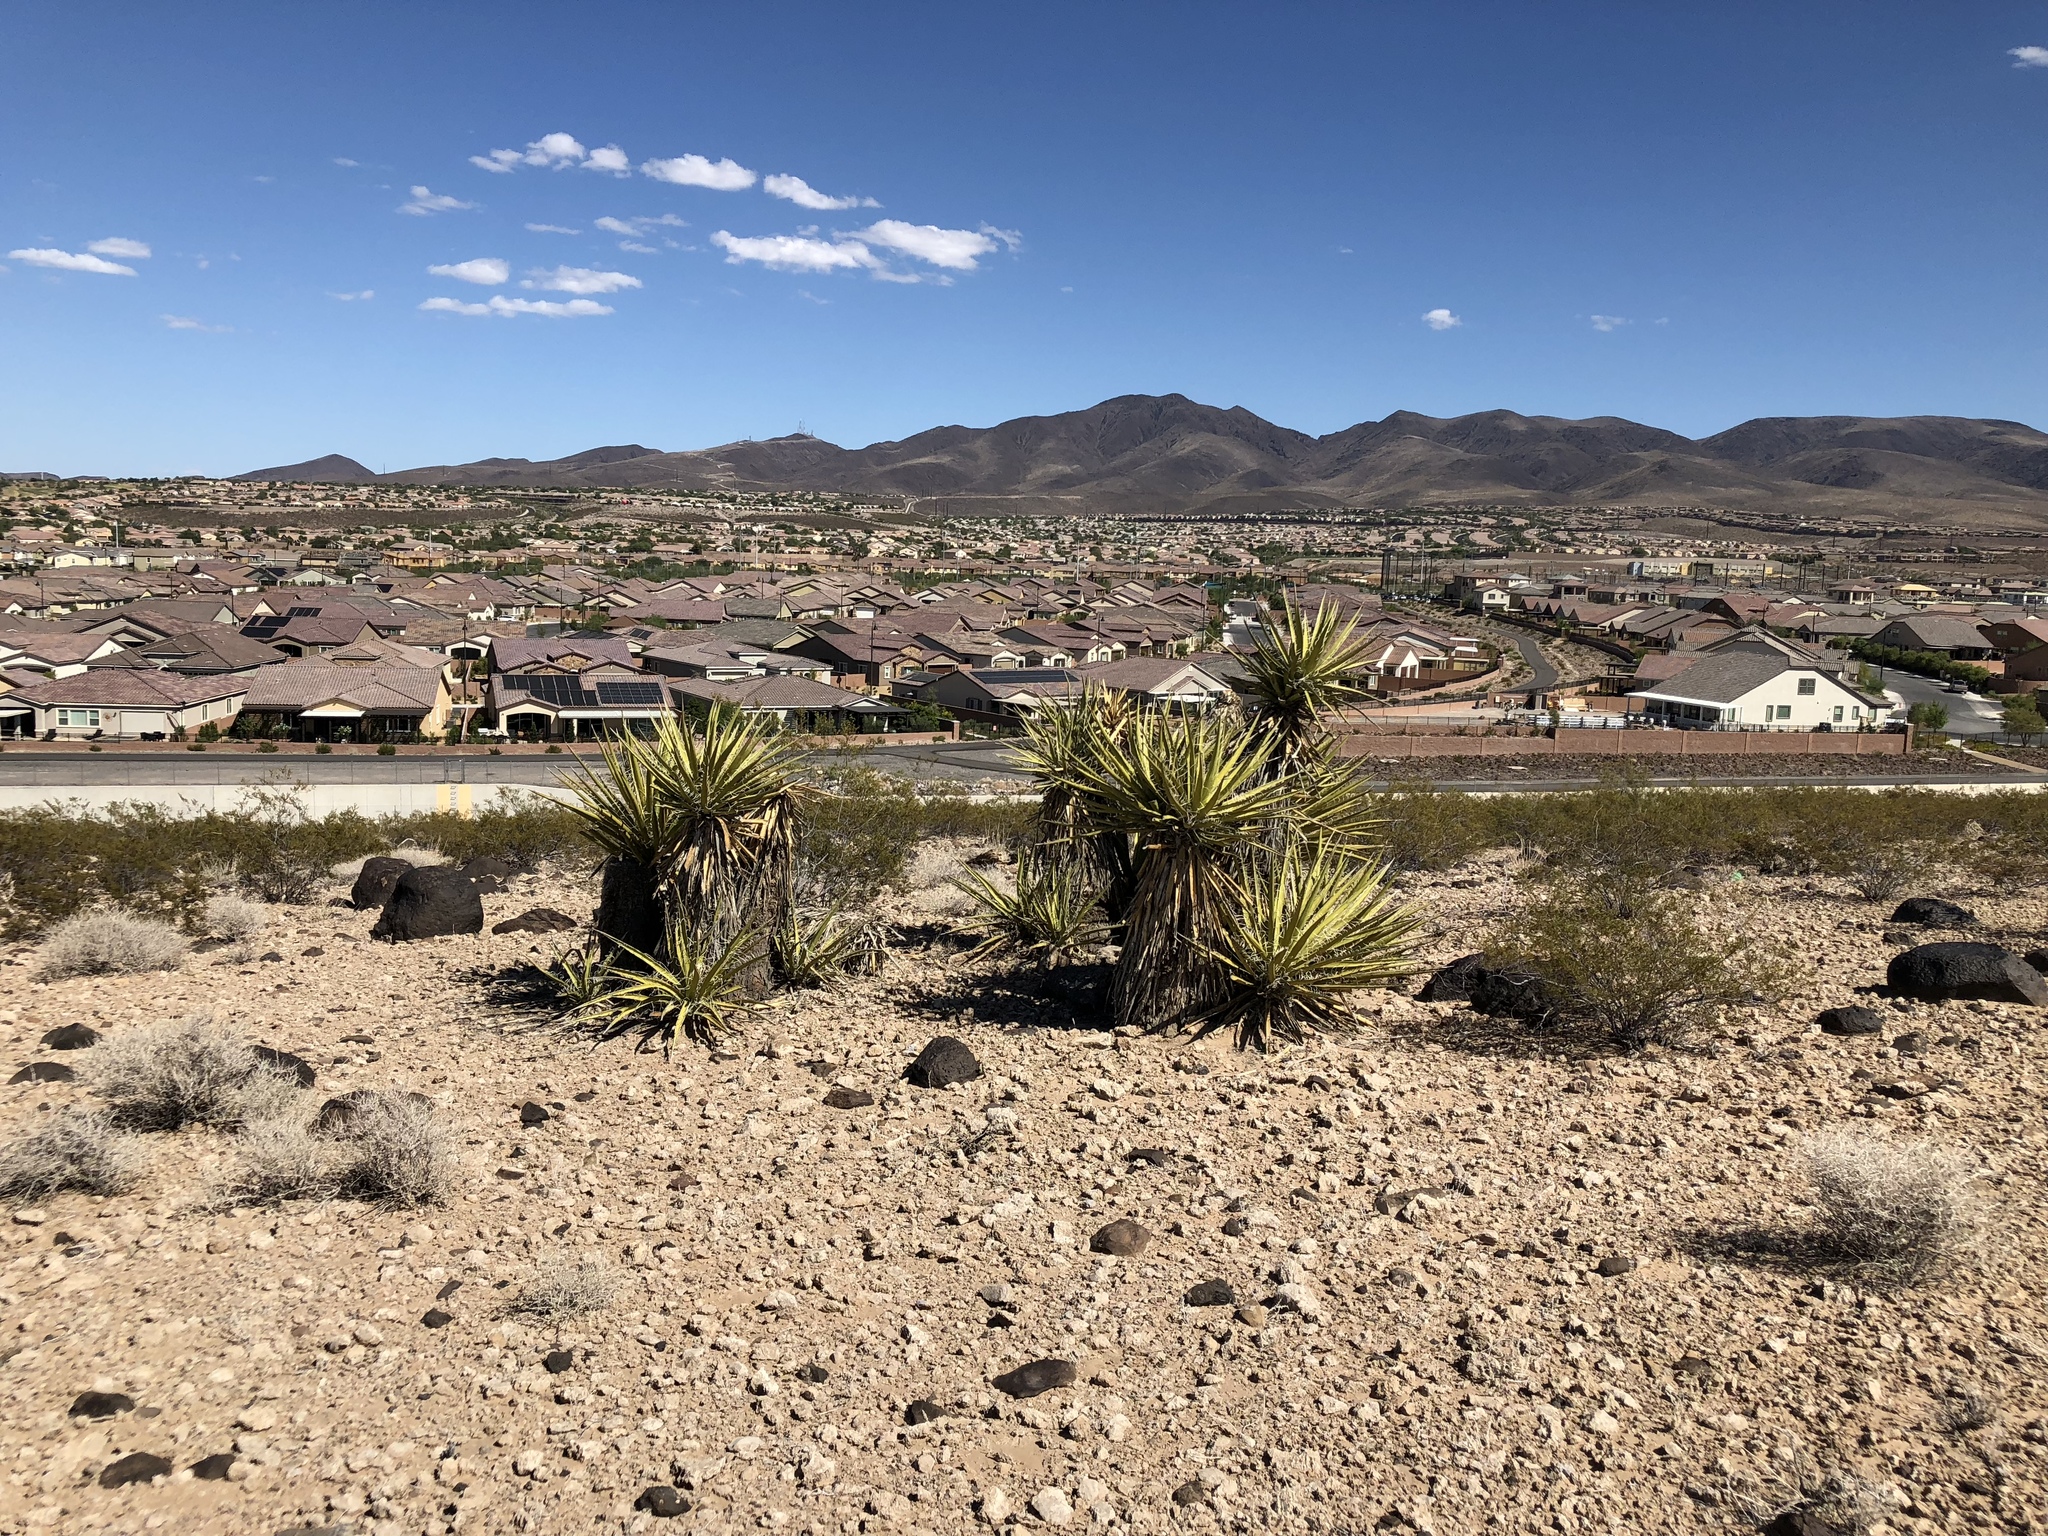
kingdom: Plantae
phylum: Tracheophyta
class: Liliopsida
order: Asparagales
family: Asparagaceae
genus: Yucca
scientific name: Yucca schidigera
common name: Mojave yucca
